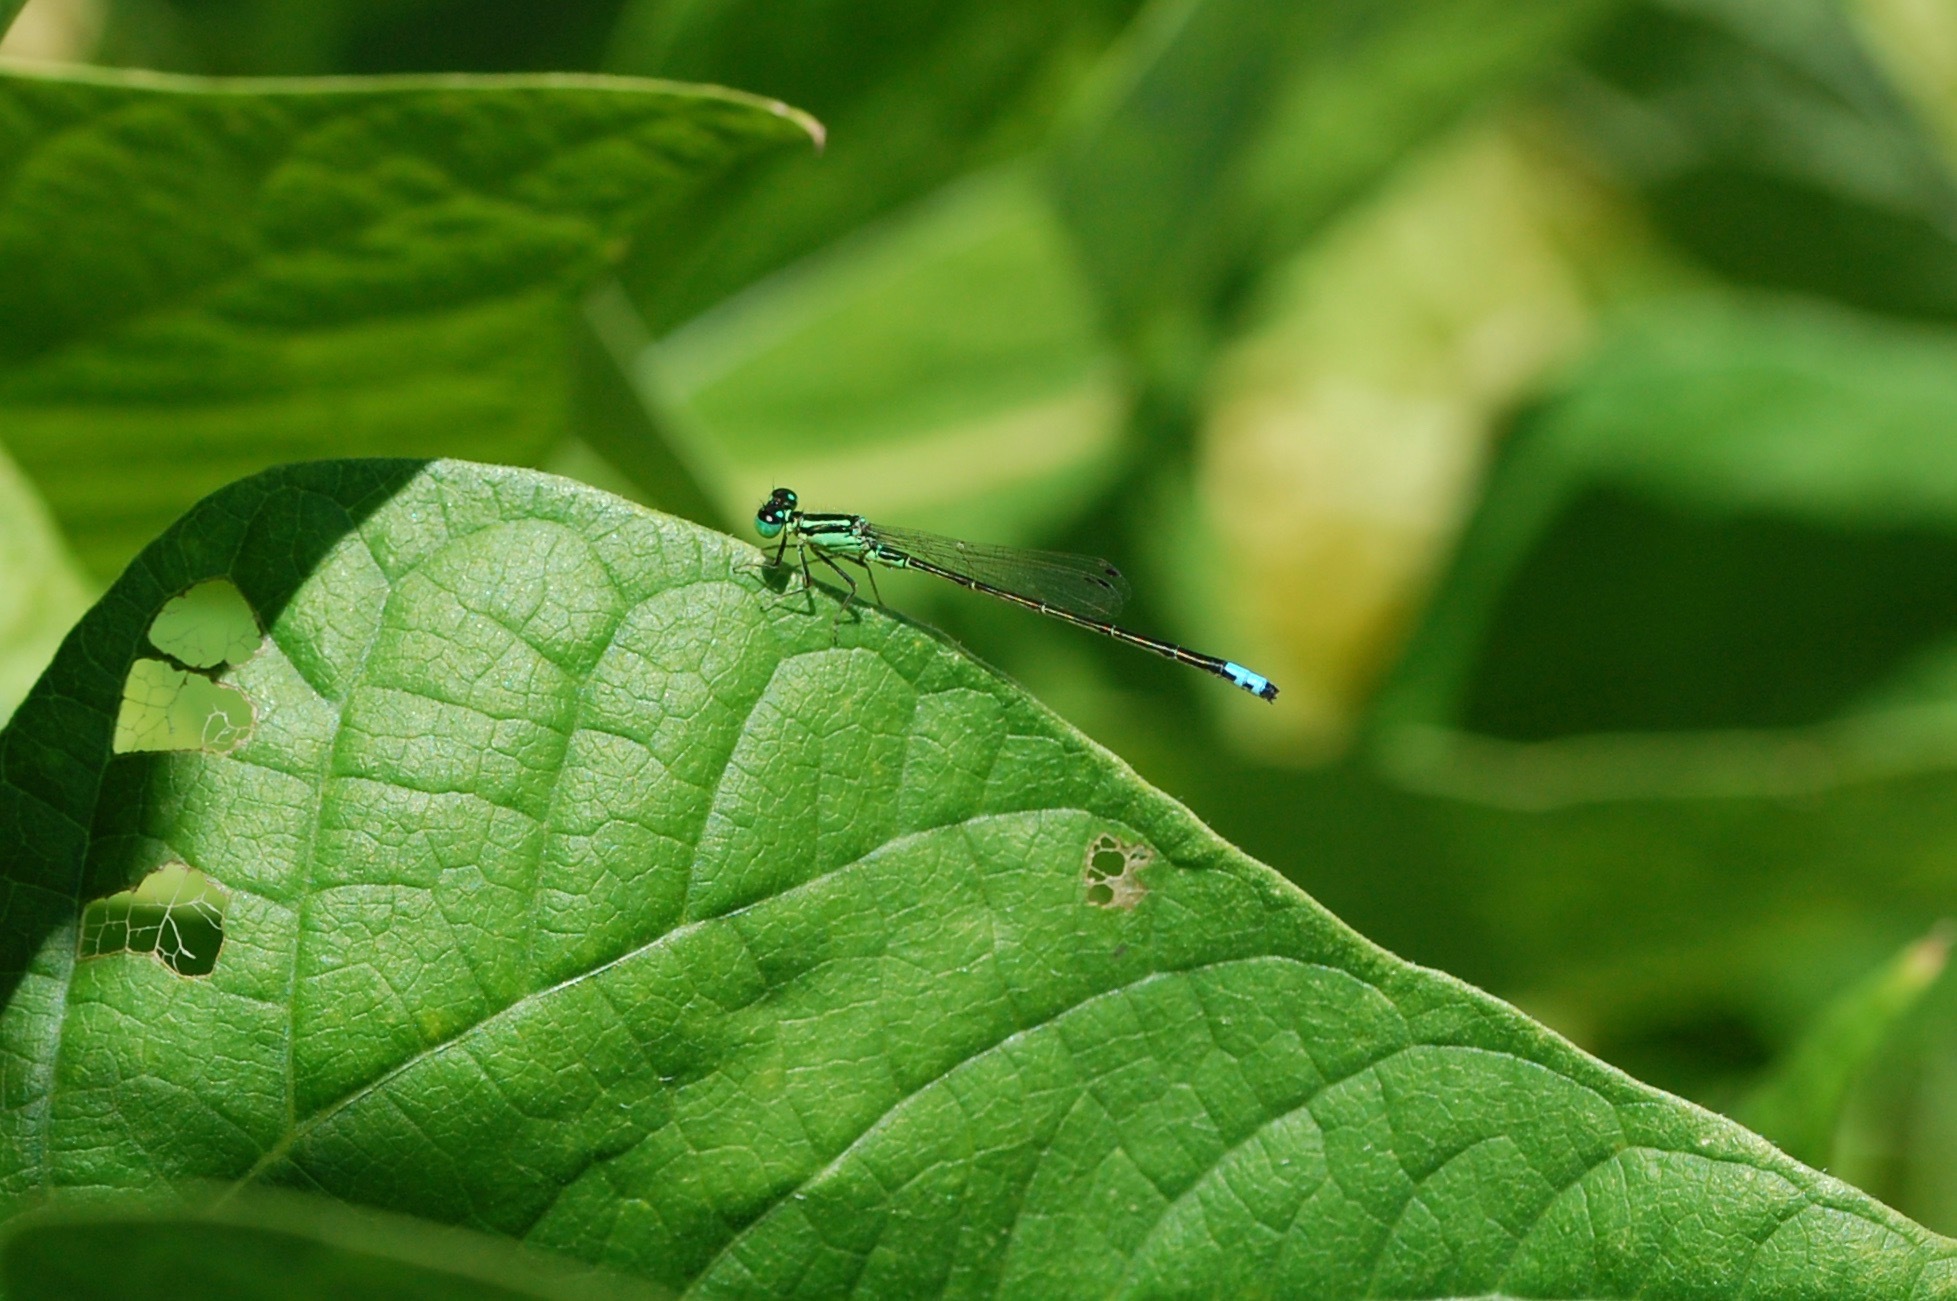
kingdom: Animalia
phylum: Arthropoda
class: Insecta
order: Odonata
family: Coenagrionidae
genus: Ischnura
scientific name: Ischnura verticalis
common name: Eastern forktail
